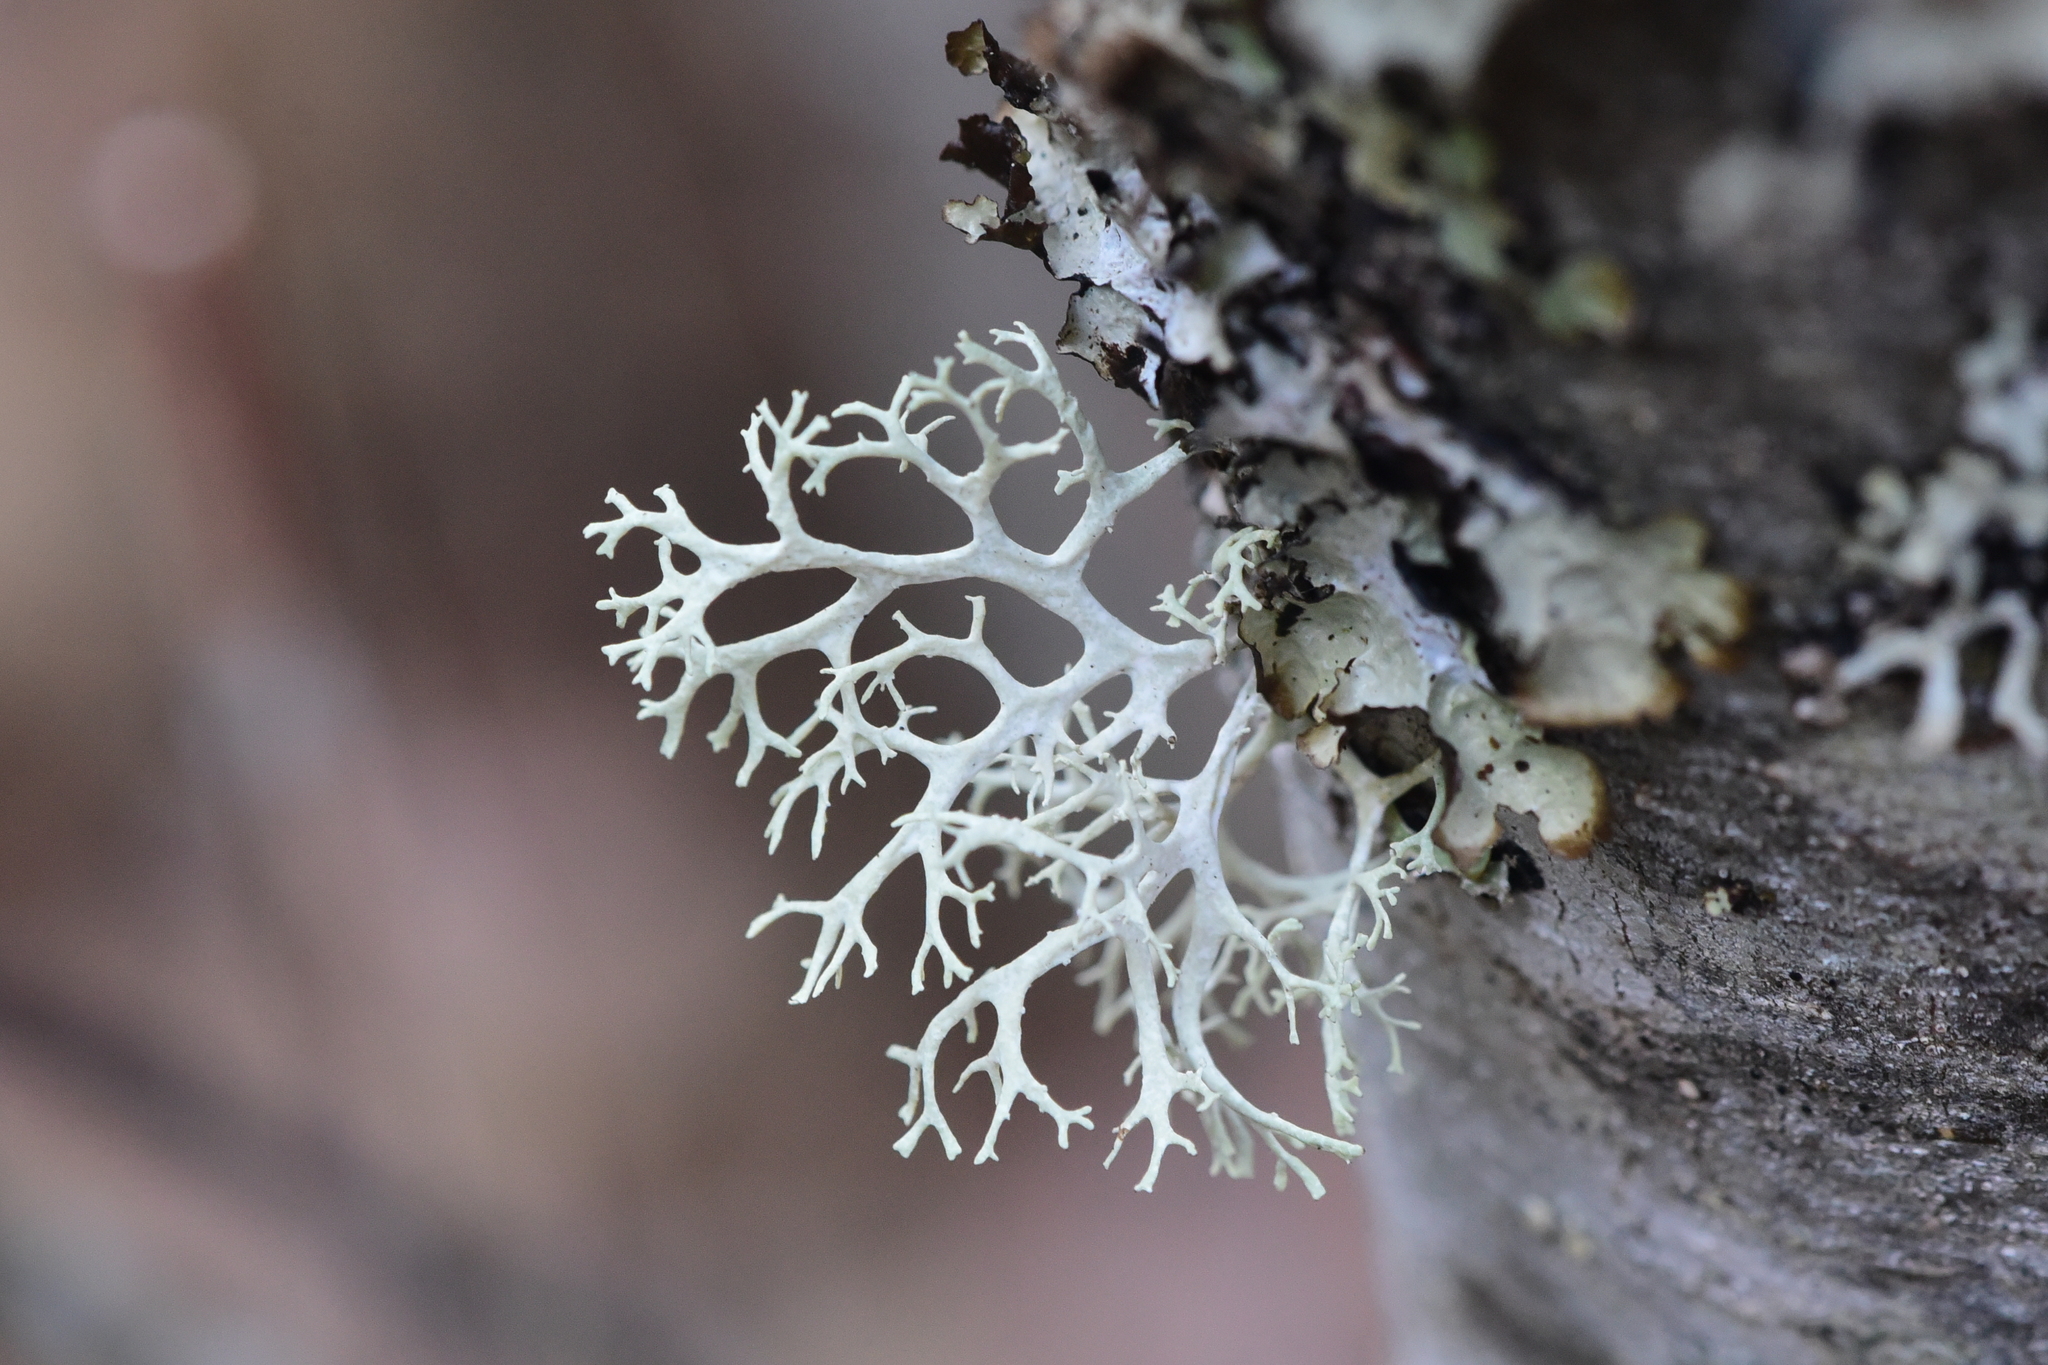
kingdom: Fungi
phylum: Ascomycota
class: Lecanoromycetes
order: Lecanorales
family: Parmeliaceae
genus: Evernia
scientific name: Evernia prunastri
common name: Oak moss
